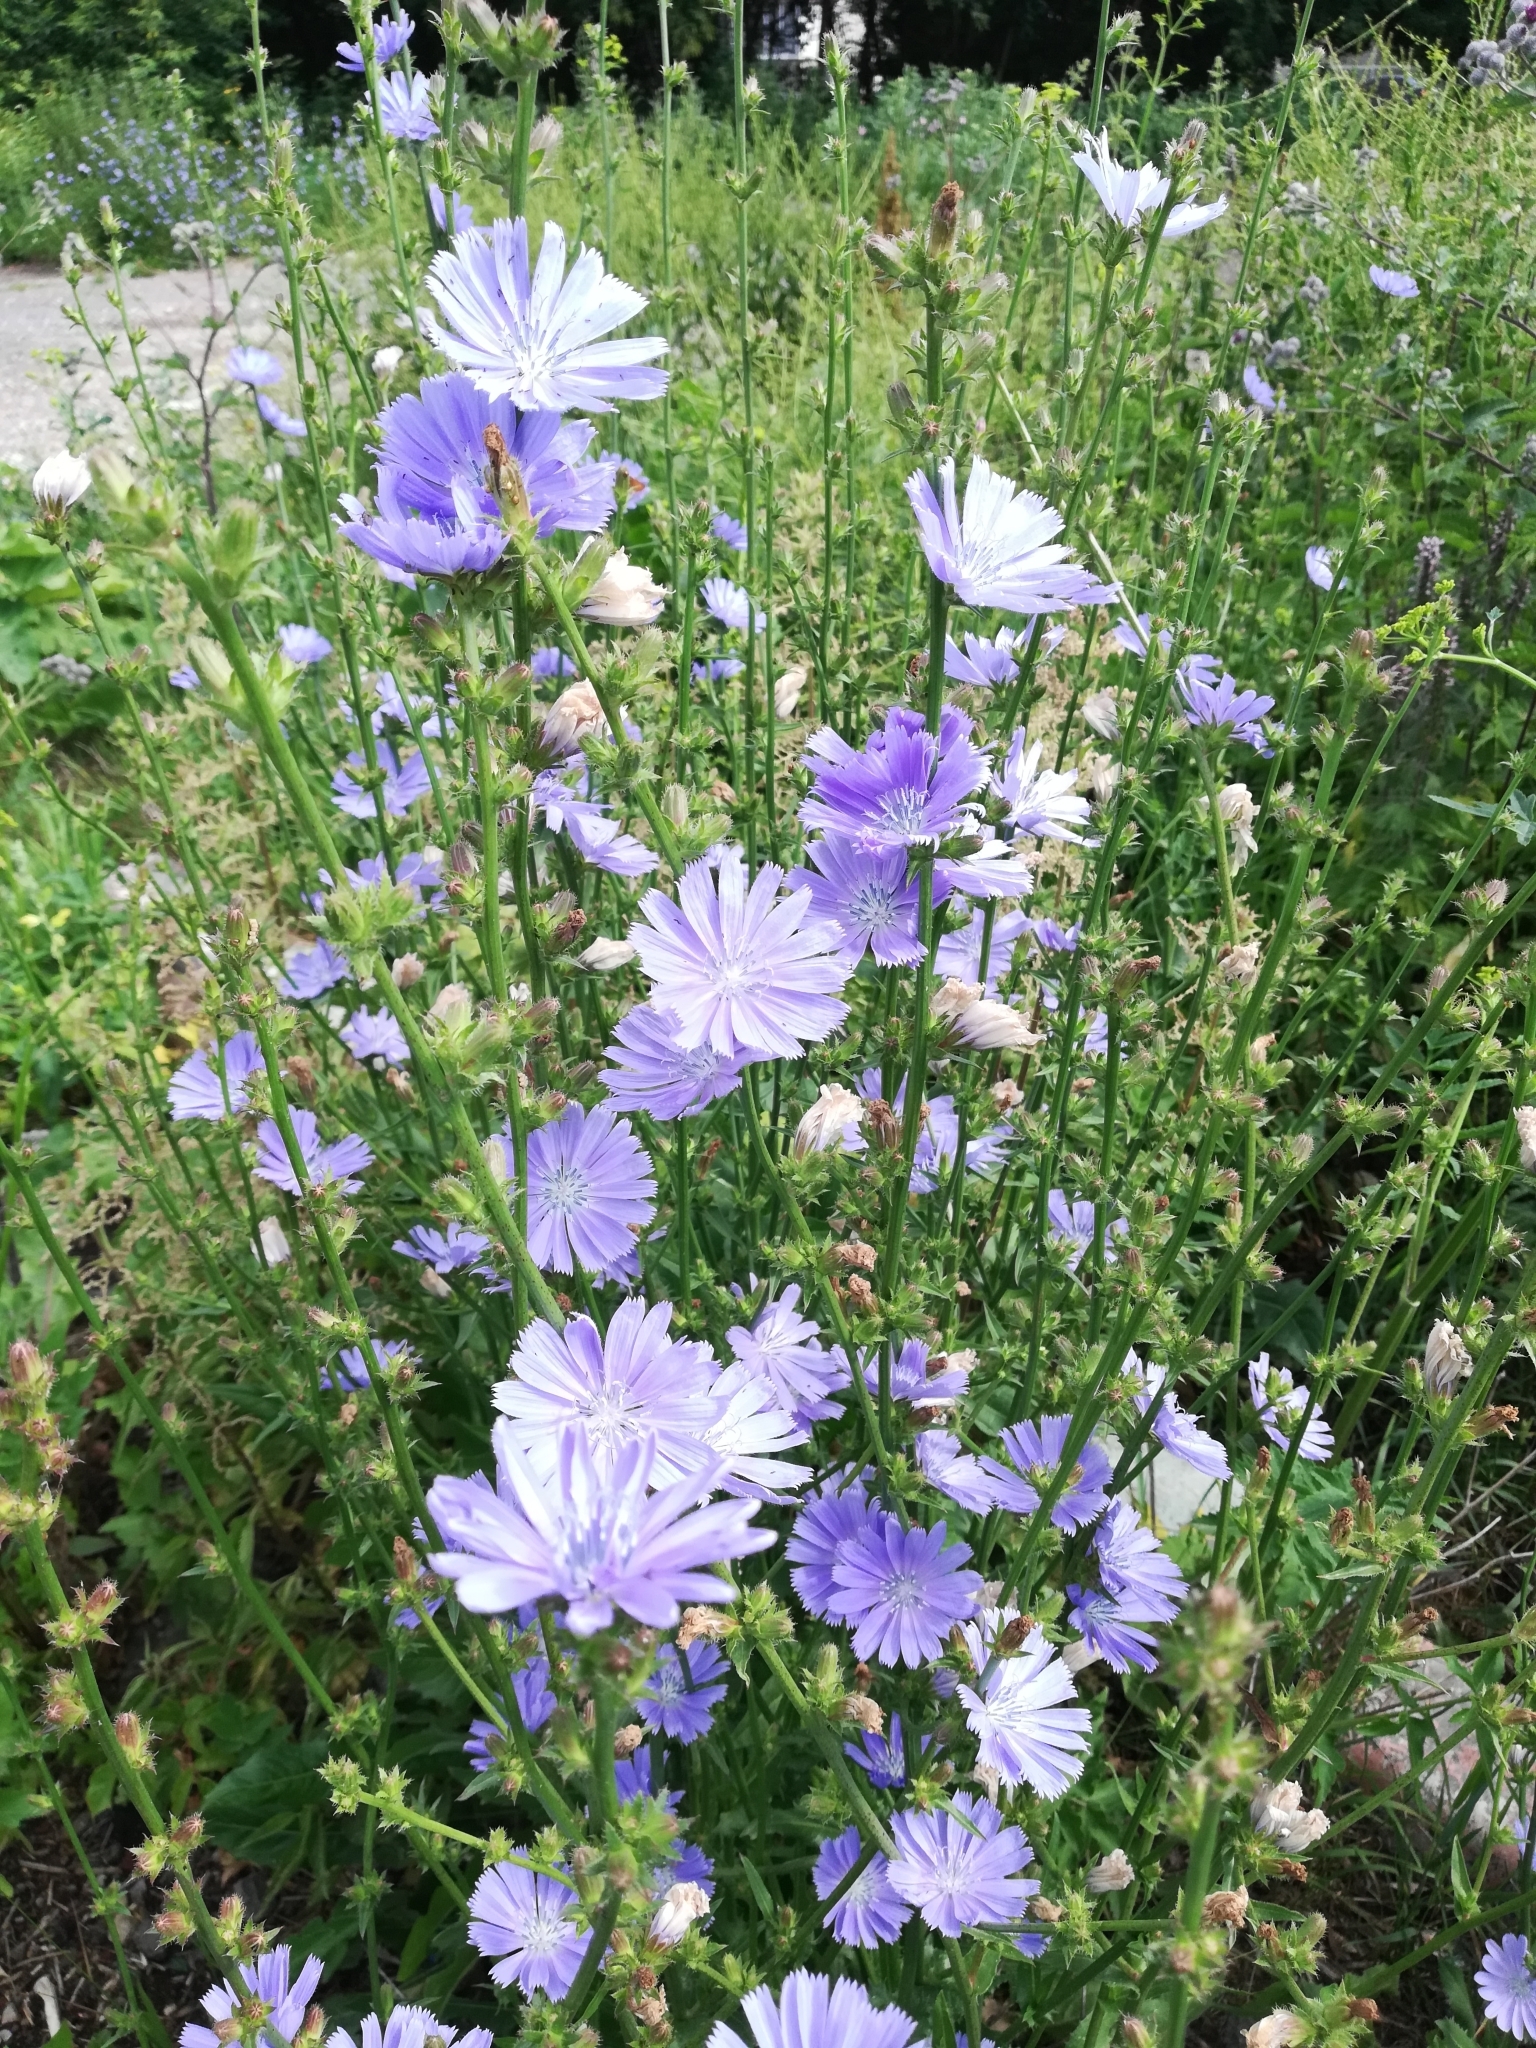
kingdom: Plantae
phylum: Tracheophyta
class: Magnoliopsida
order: Asterales
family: Asteraceae
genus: Cichorium
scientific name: Cichorium intybus
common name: Chicory
